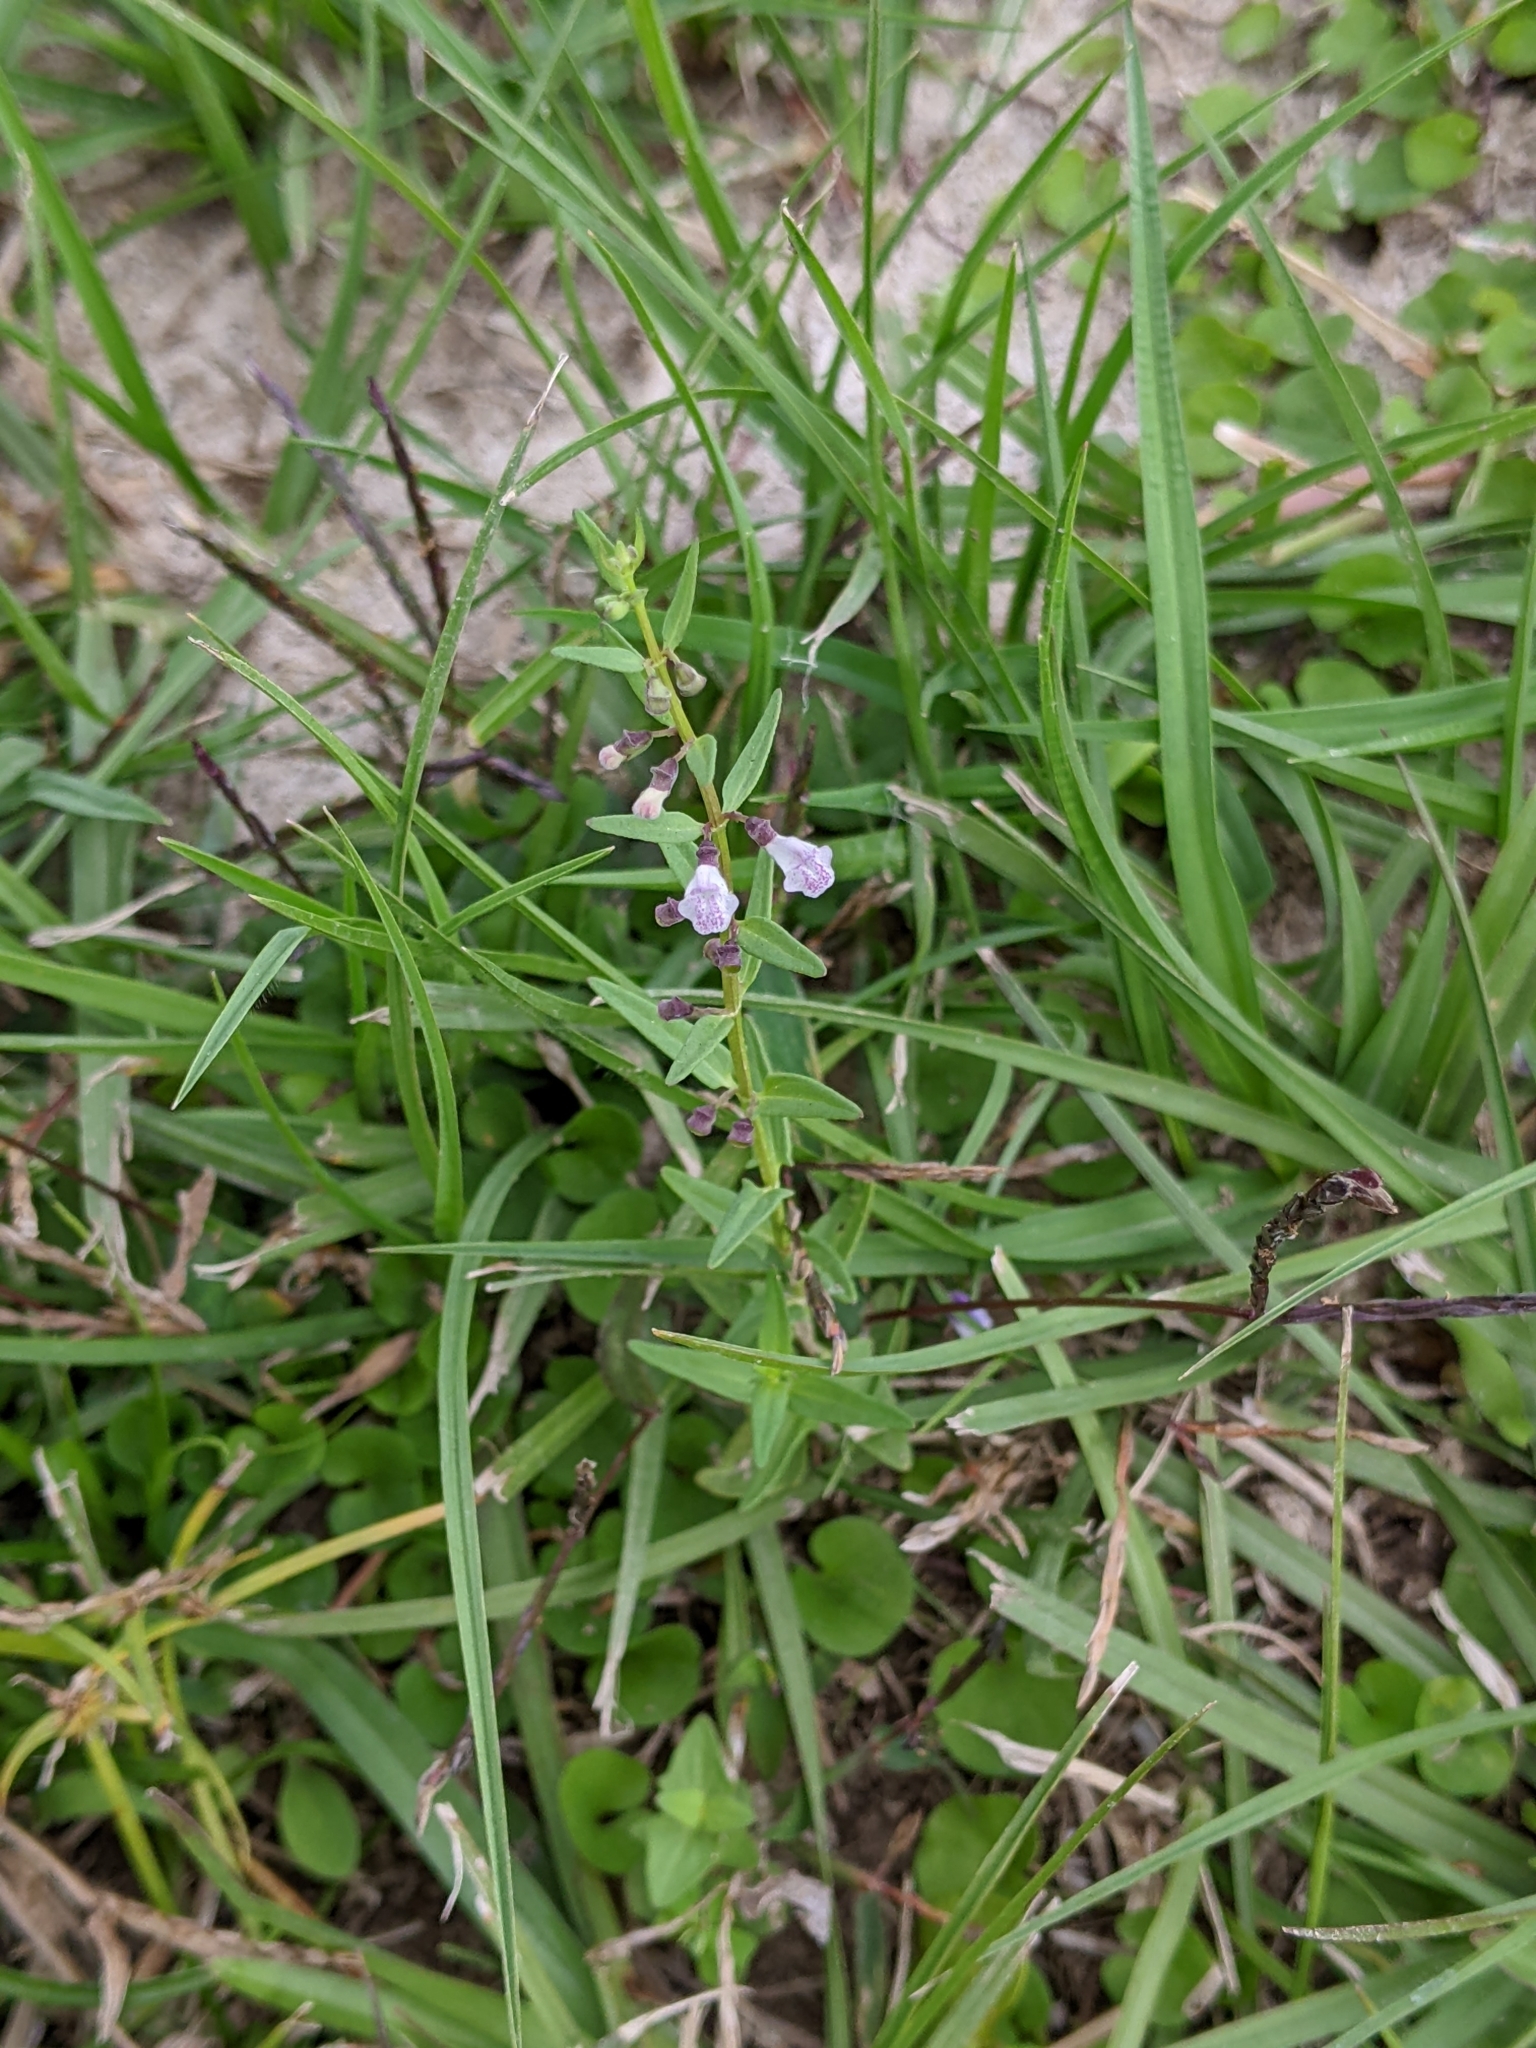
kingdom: Plantae
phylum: Tracheophyta
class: Magnoliopsida
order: Lamiales
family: Lamiaceae
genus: Scutellaria
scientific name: Scutellaria racemosa
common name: South american skullcap
